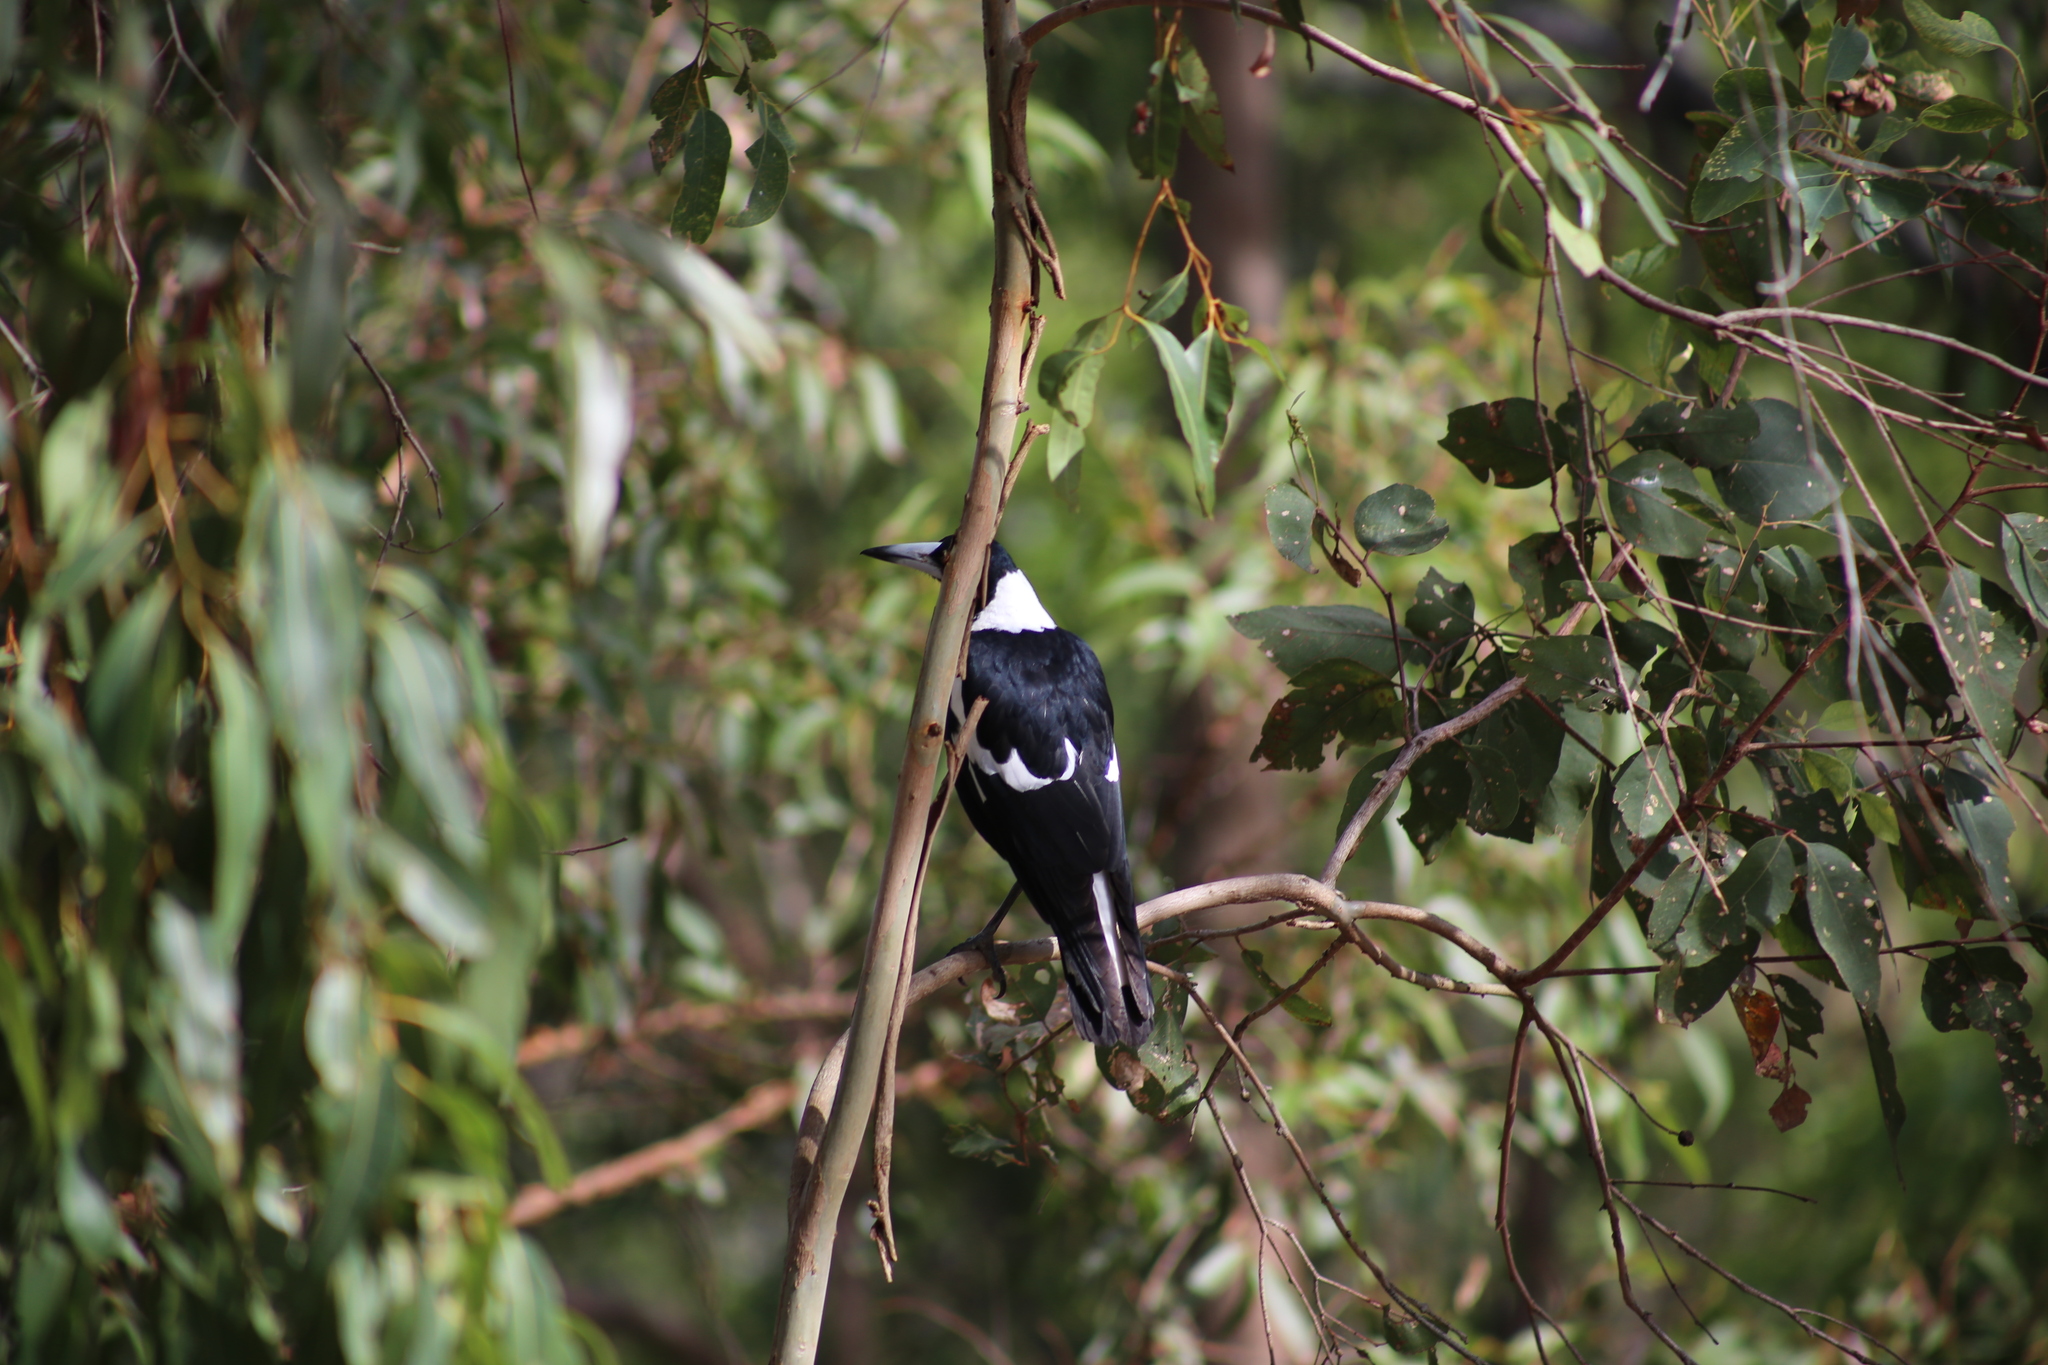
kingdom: Animalia
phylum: Chordata
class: Aves
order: Passeriformes
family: Cracticidae
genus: Gymnorhina
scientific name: Gymnorhina tibicen
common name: Australian magpie
